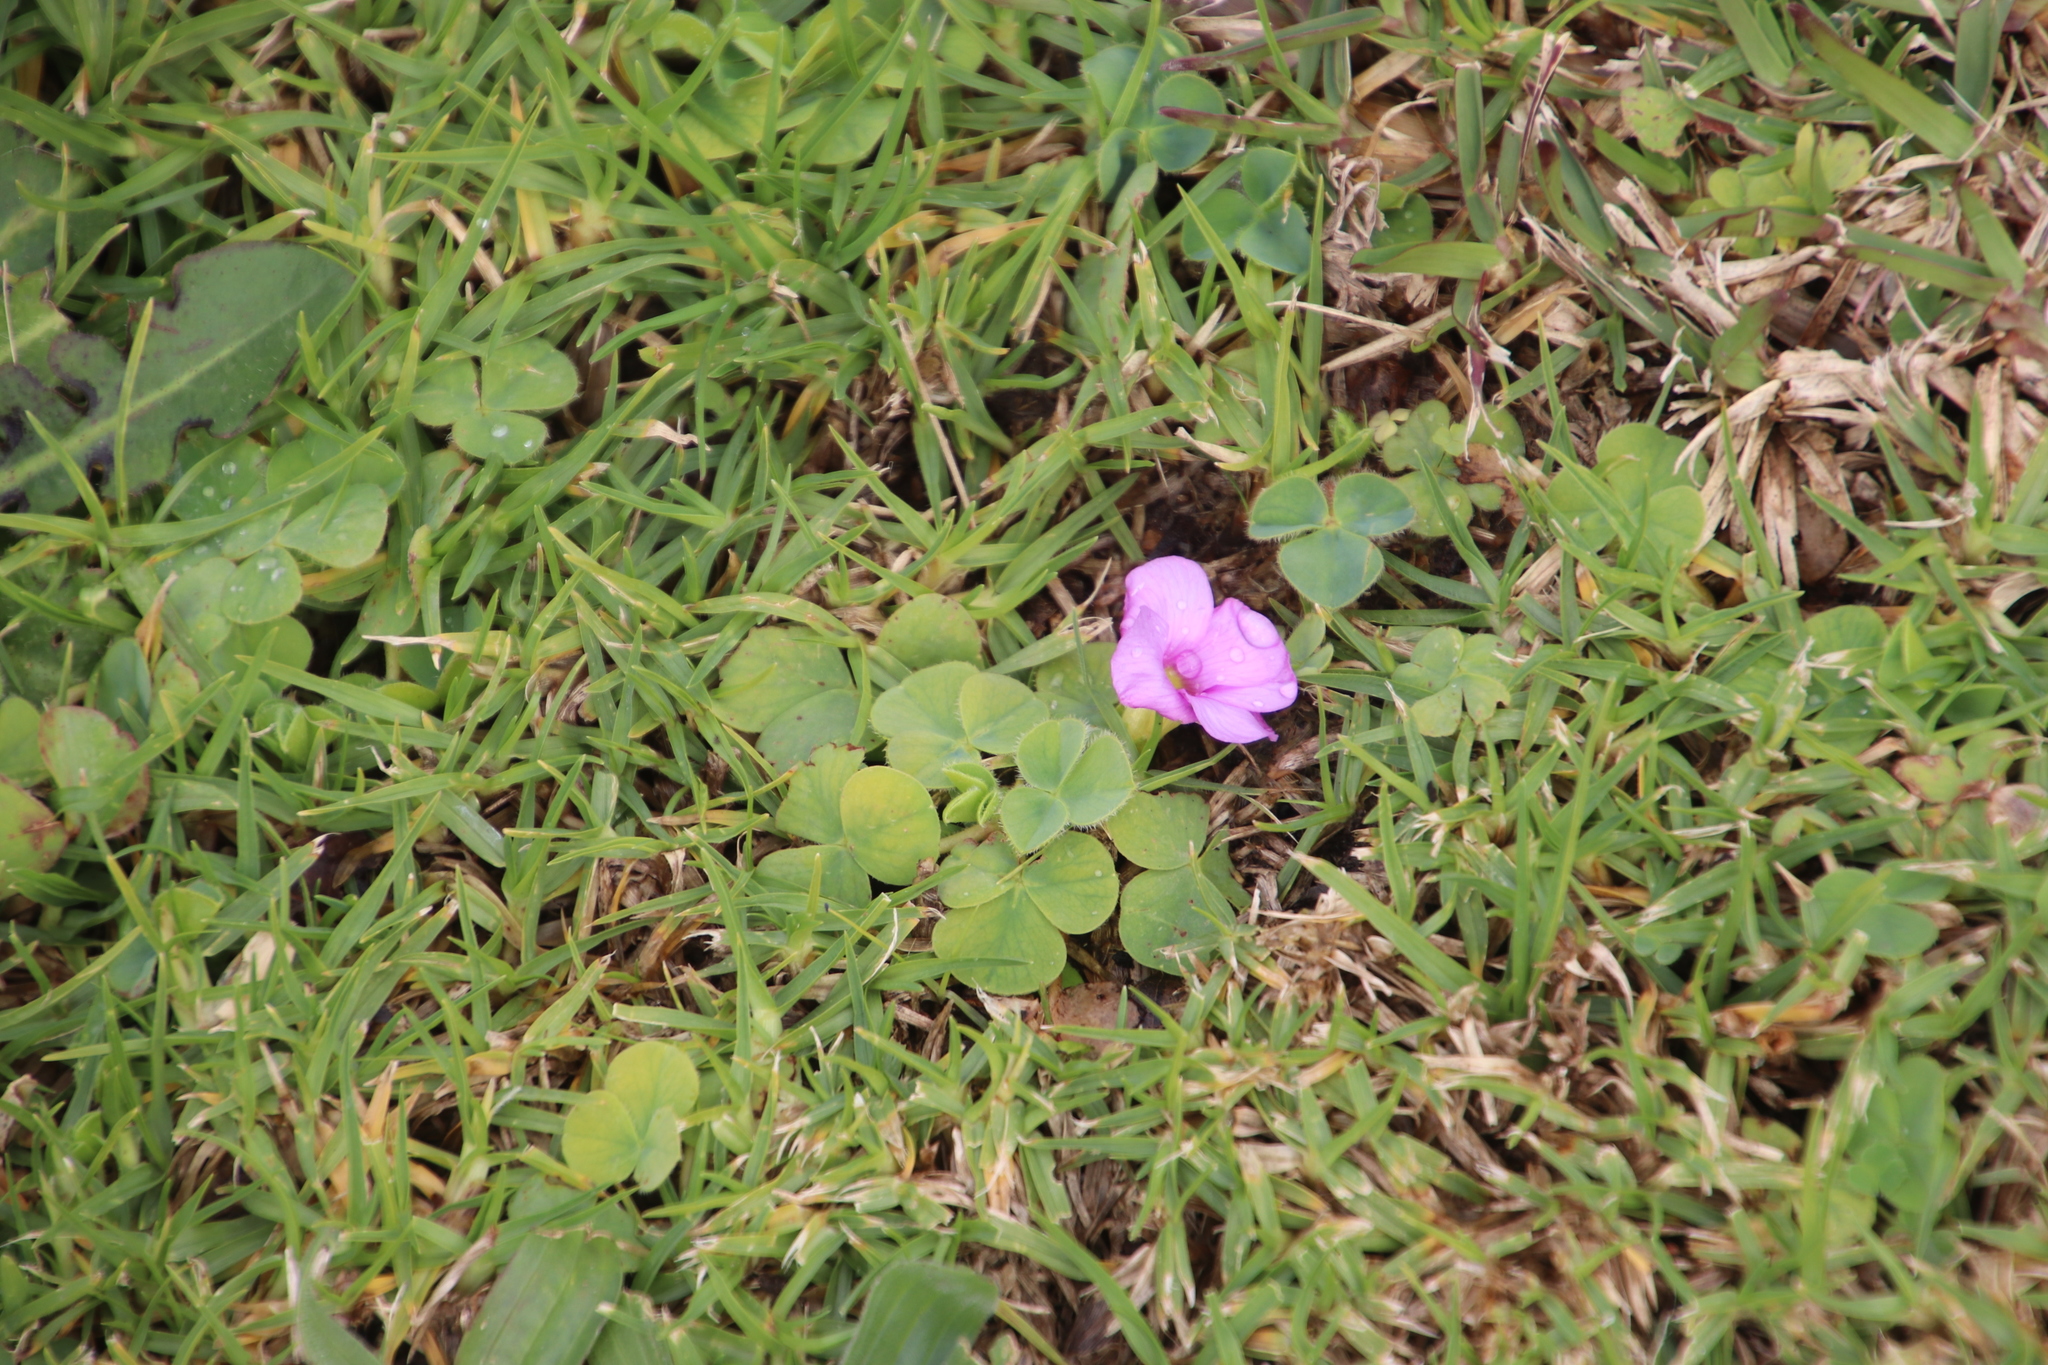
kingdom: Plantae
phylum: Tracheophyta
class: Magnoliopsida
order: Oxalidales
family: Oxalidaceae
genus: Oxalis
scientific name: Oxalis purpurea
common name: Purple woodsorrel
